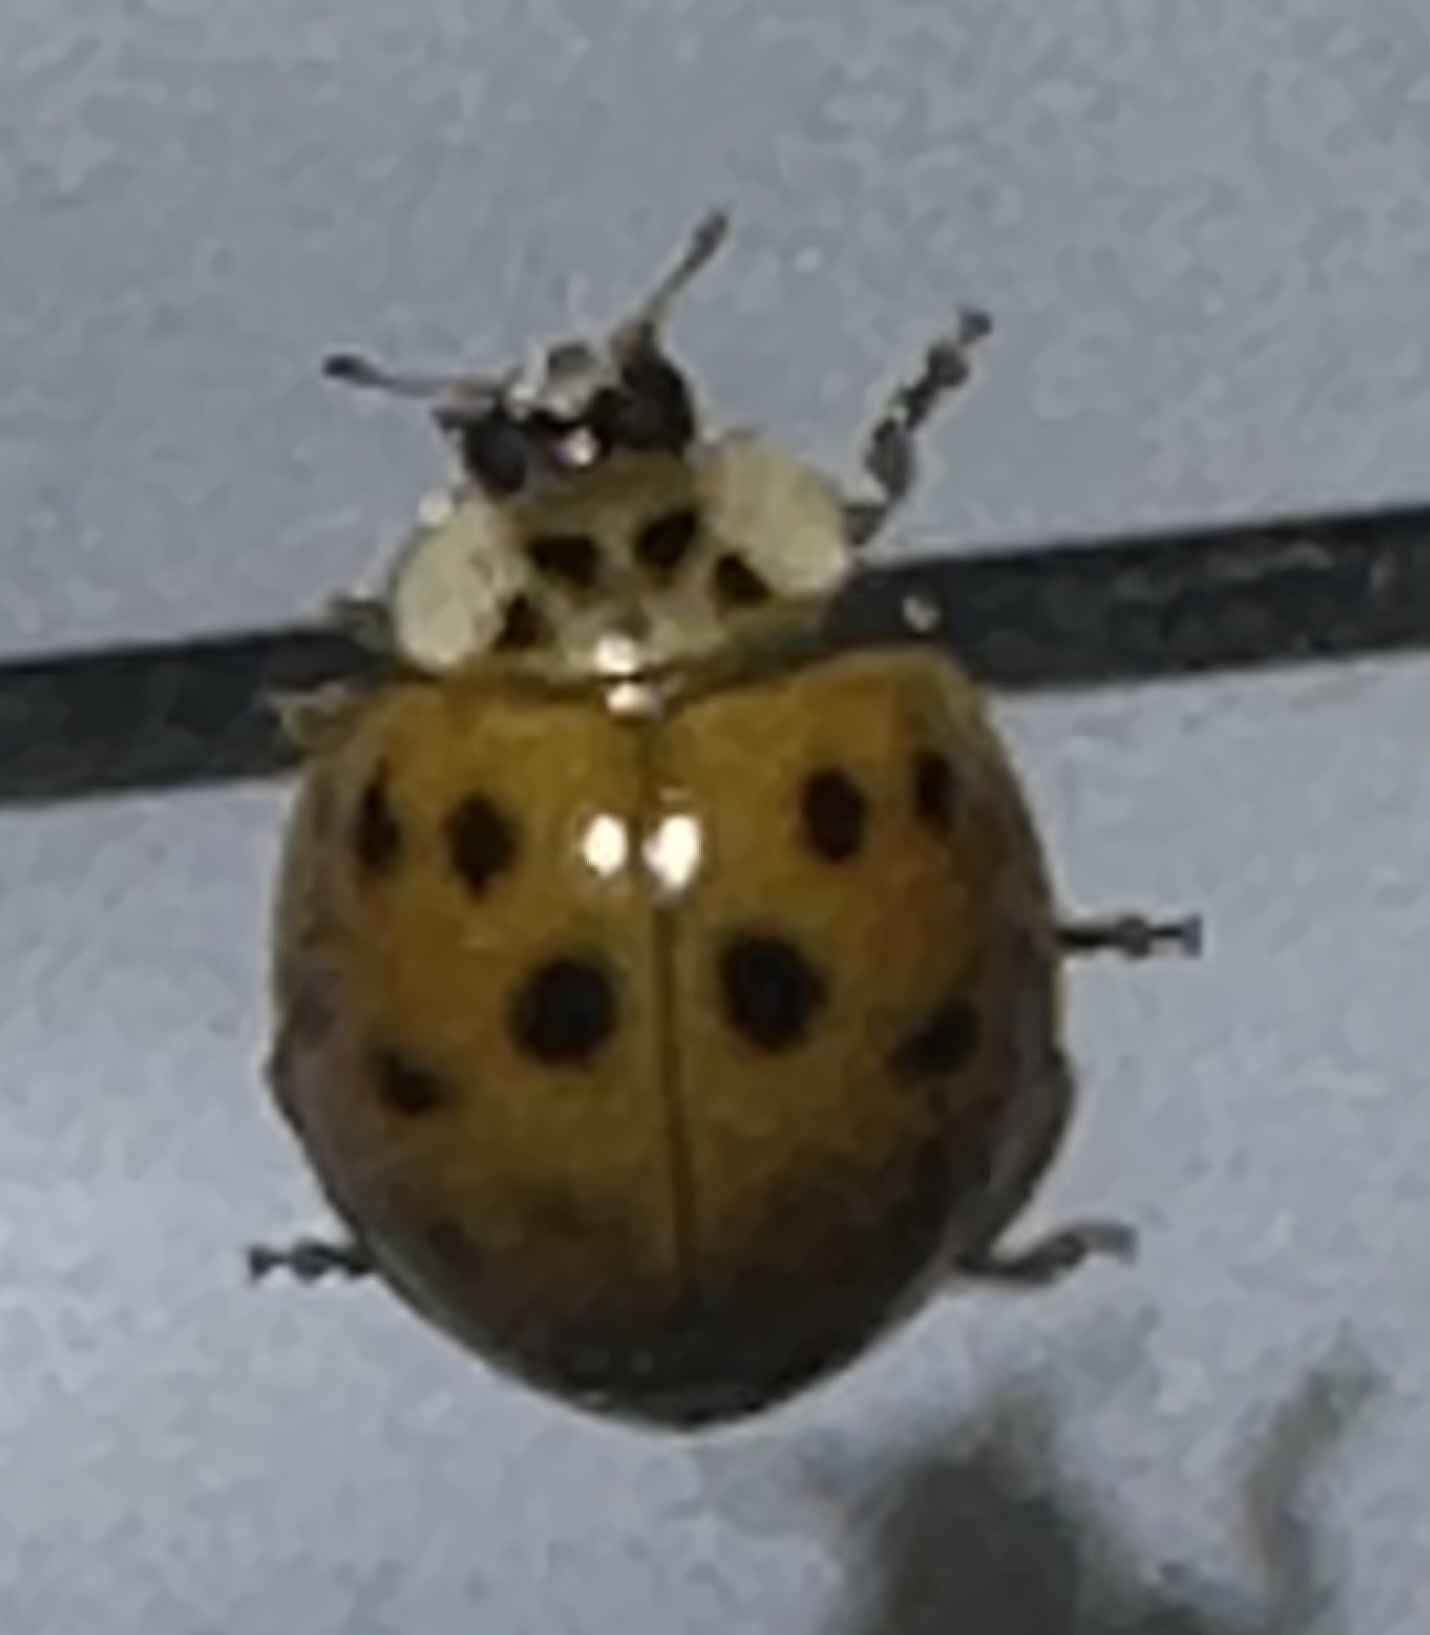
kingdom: Animalia
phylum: Arthropoda
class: Insecta
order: Coleoptera
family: Coccinellidae
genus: Harmonia
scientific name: Harmonia axyridis
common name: Harlequin ladybird
